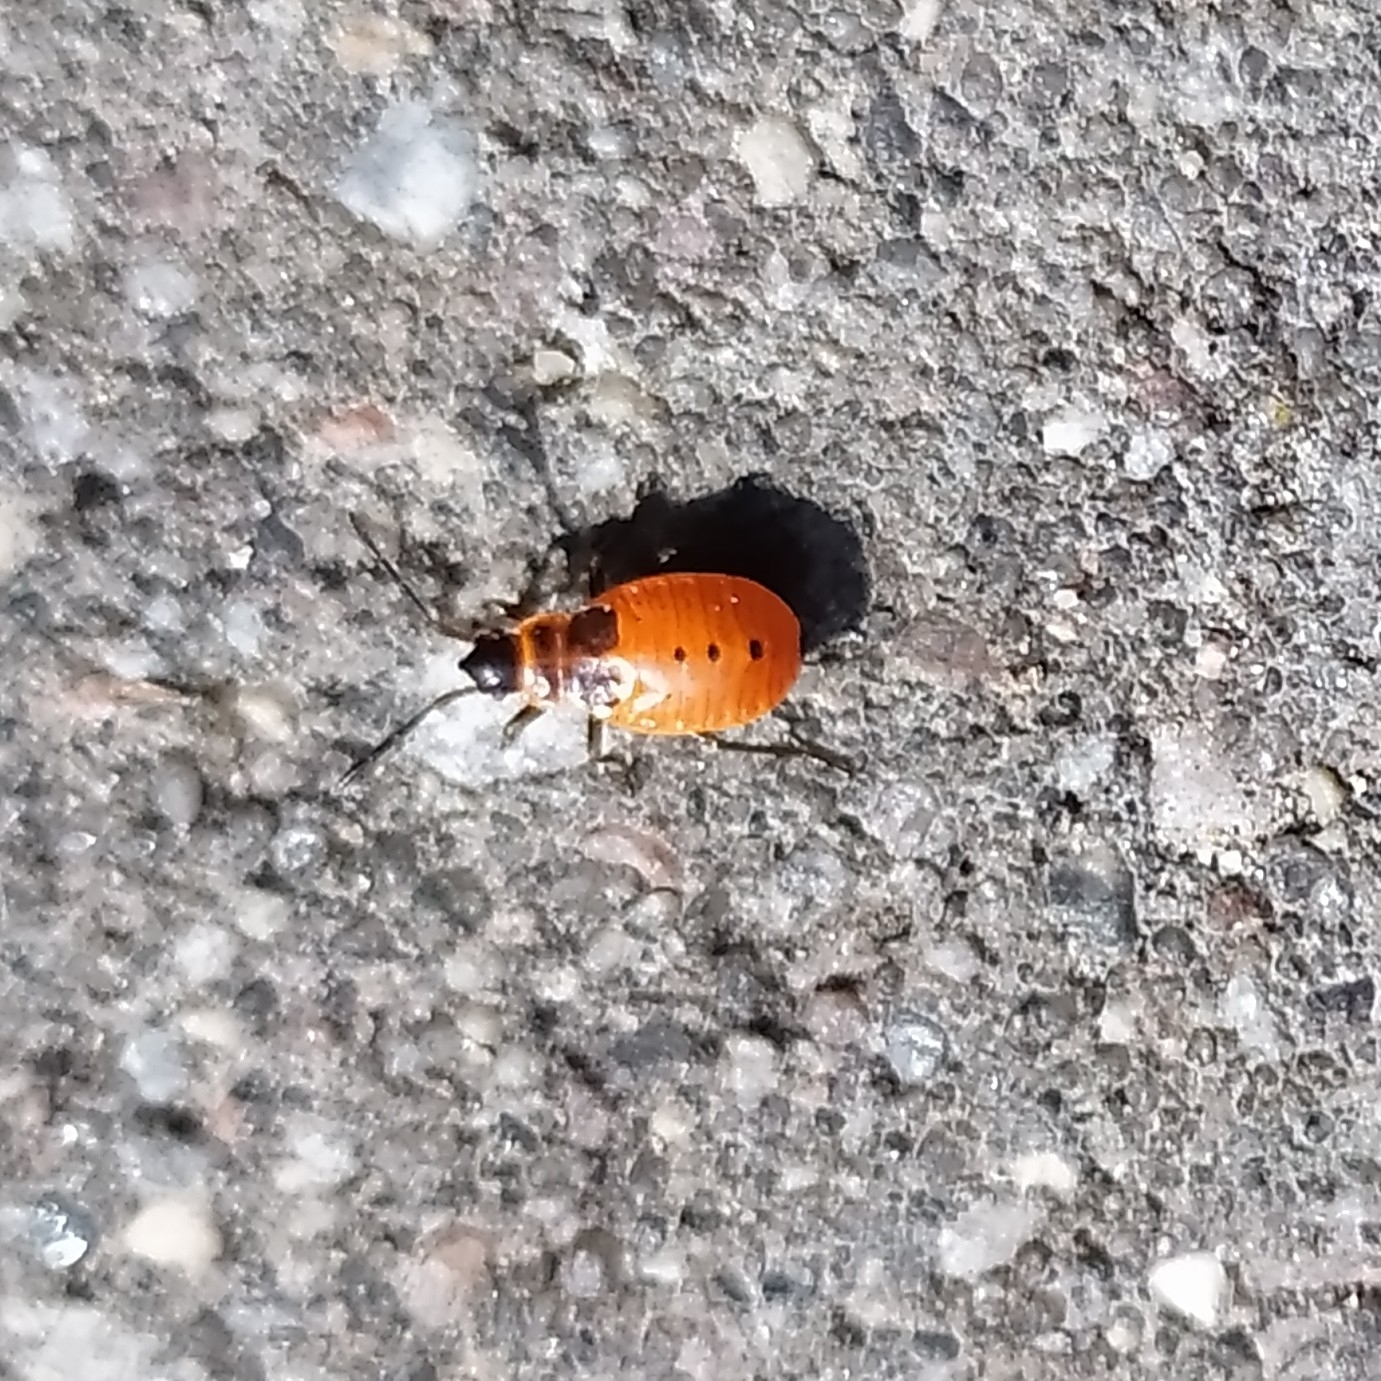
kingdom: Animalia
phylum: Arthropoda
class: Insecta
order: Hemiptera
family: Pyrrhocoridae
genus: Pyrrhocoris
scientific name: Pyrrhocoris apterus
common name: Firebug
